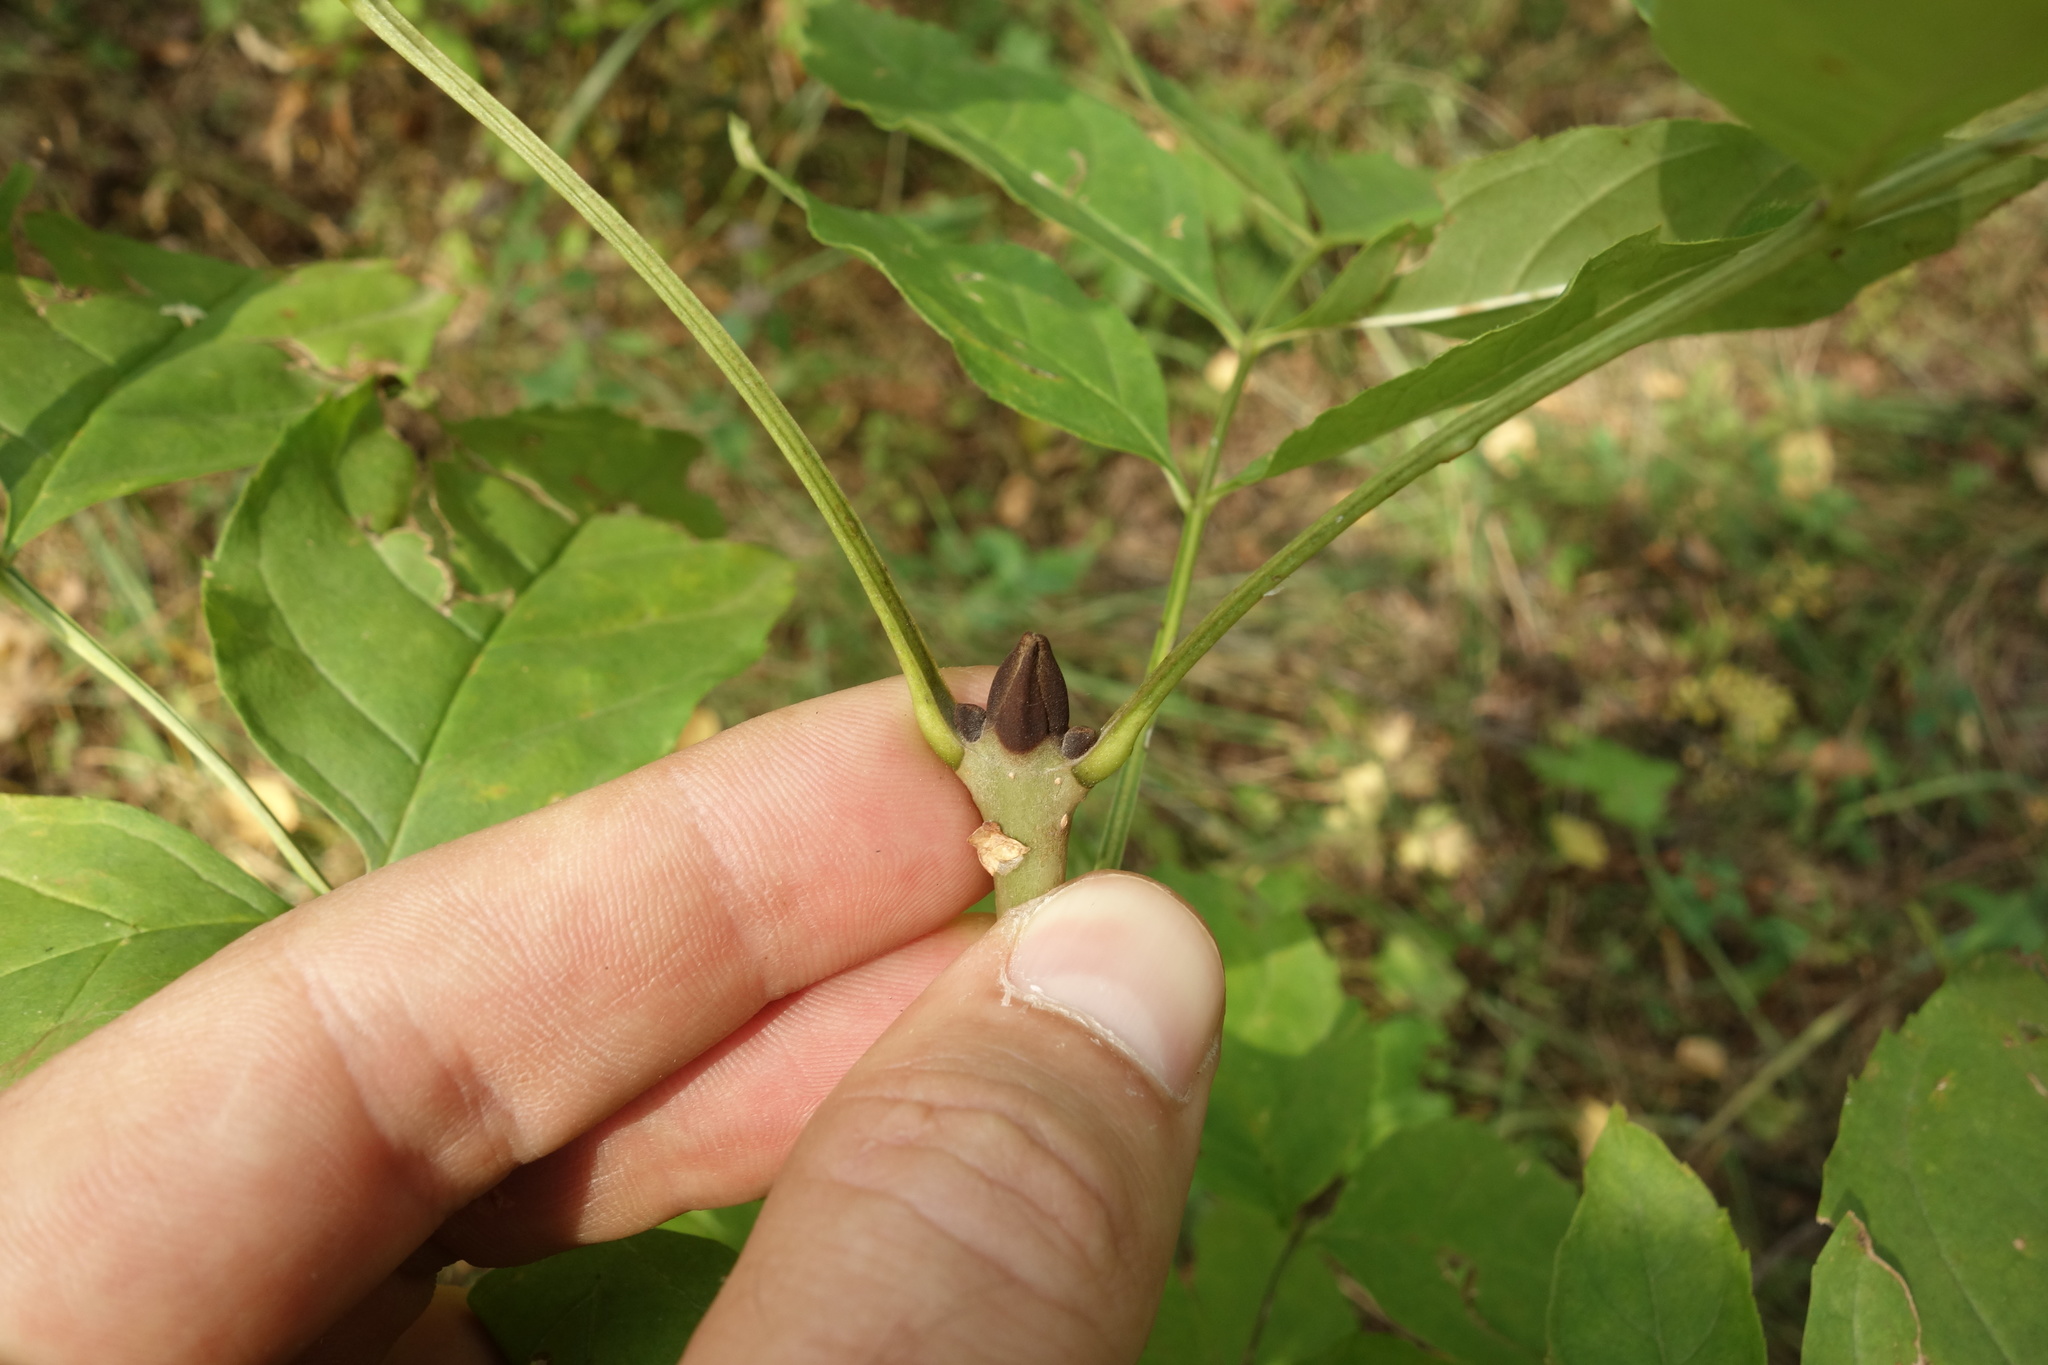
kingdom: Plantae
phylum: Tracheophyta
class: Magnoliopsida
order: Lamiales
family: Oleaceae
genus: Fraxinus
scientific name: Fraxinus pennsylvanica
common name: Green ash
